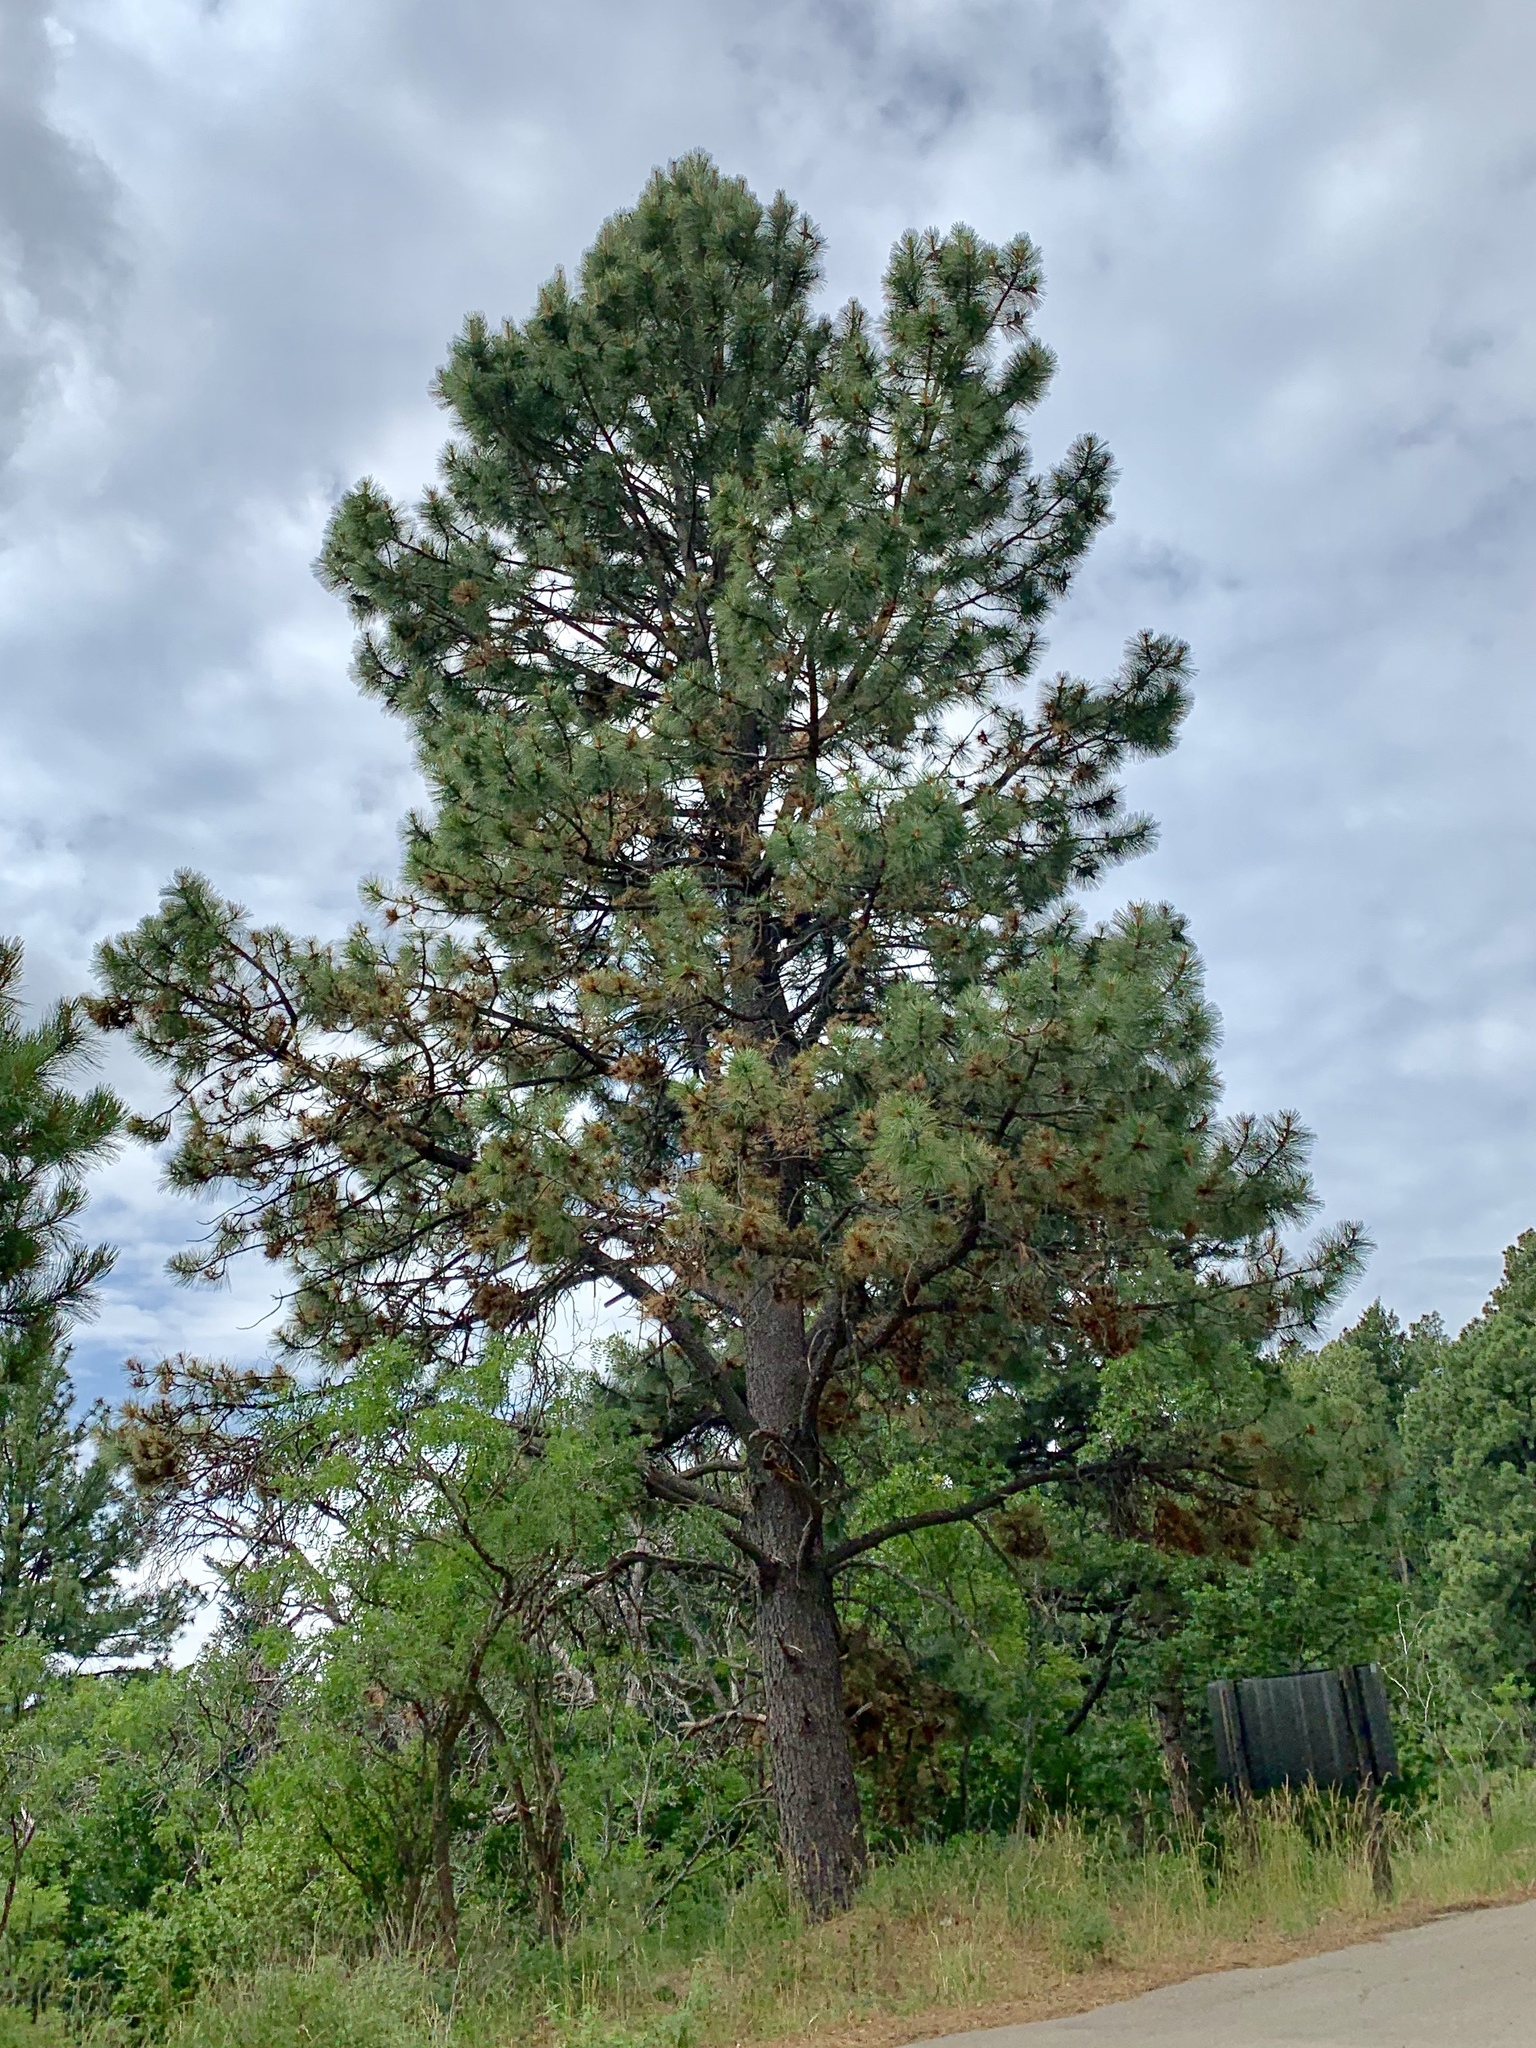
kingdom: Plantae
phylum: Tracheophyta
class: Pinopsida
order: Pinales
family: Pinaceae
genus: Pinus
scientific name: Pinus ponderosa
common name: Western yellow-pine
